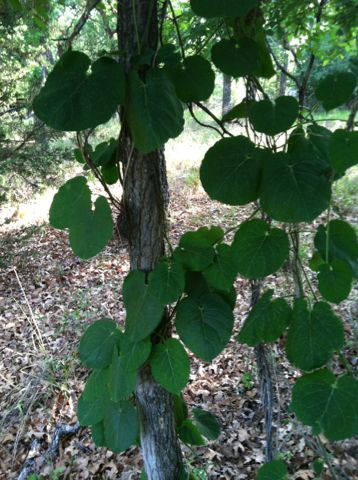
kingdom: Plantae
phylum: Tracheophyta
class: Magnoliopsida
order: Gentianales
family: Apocynaceae
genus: Gonolobus
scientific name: Gonolobus suberosus
